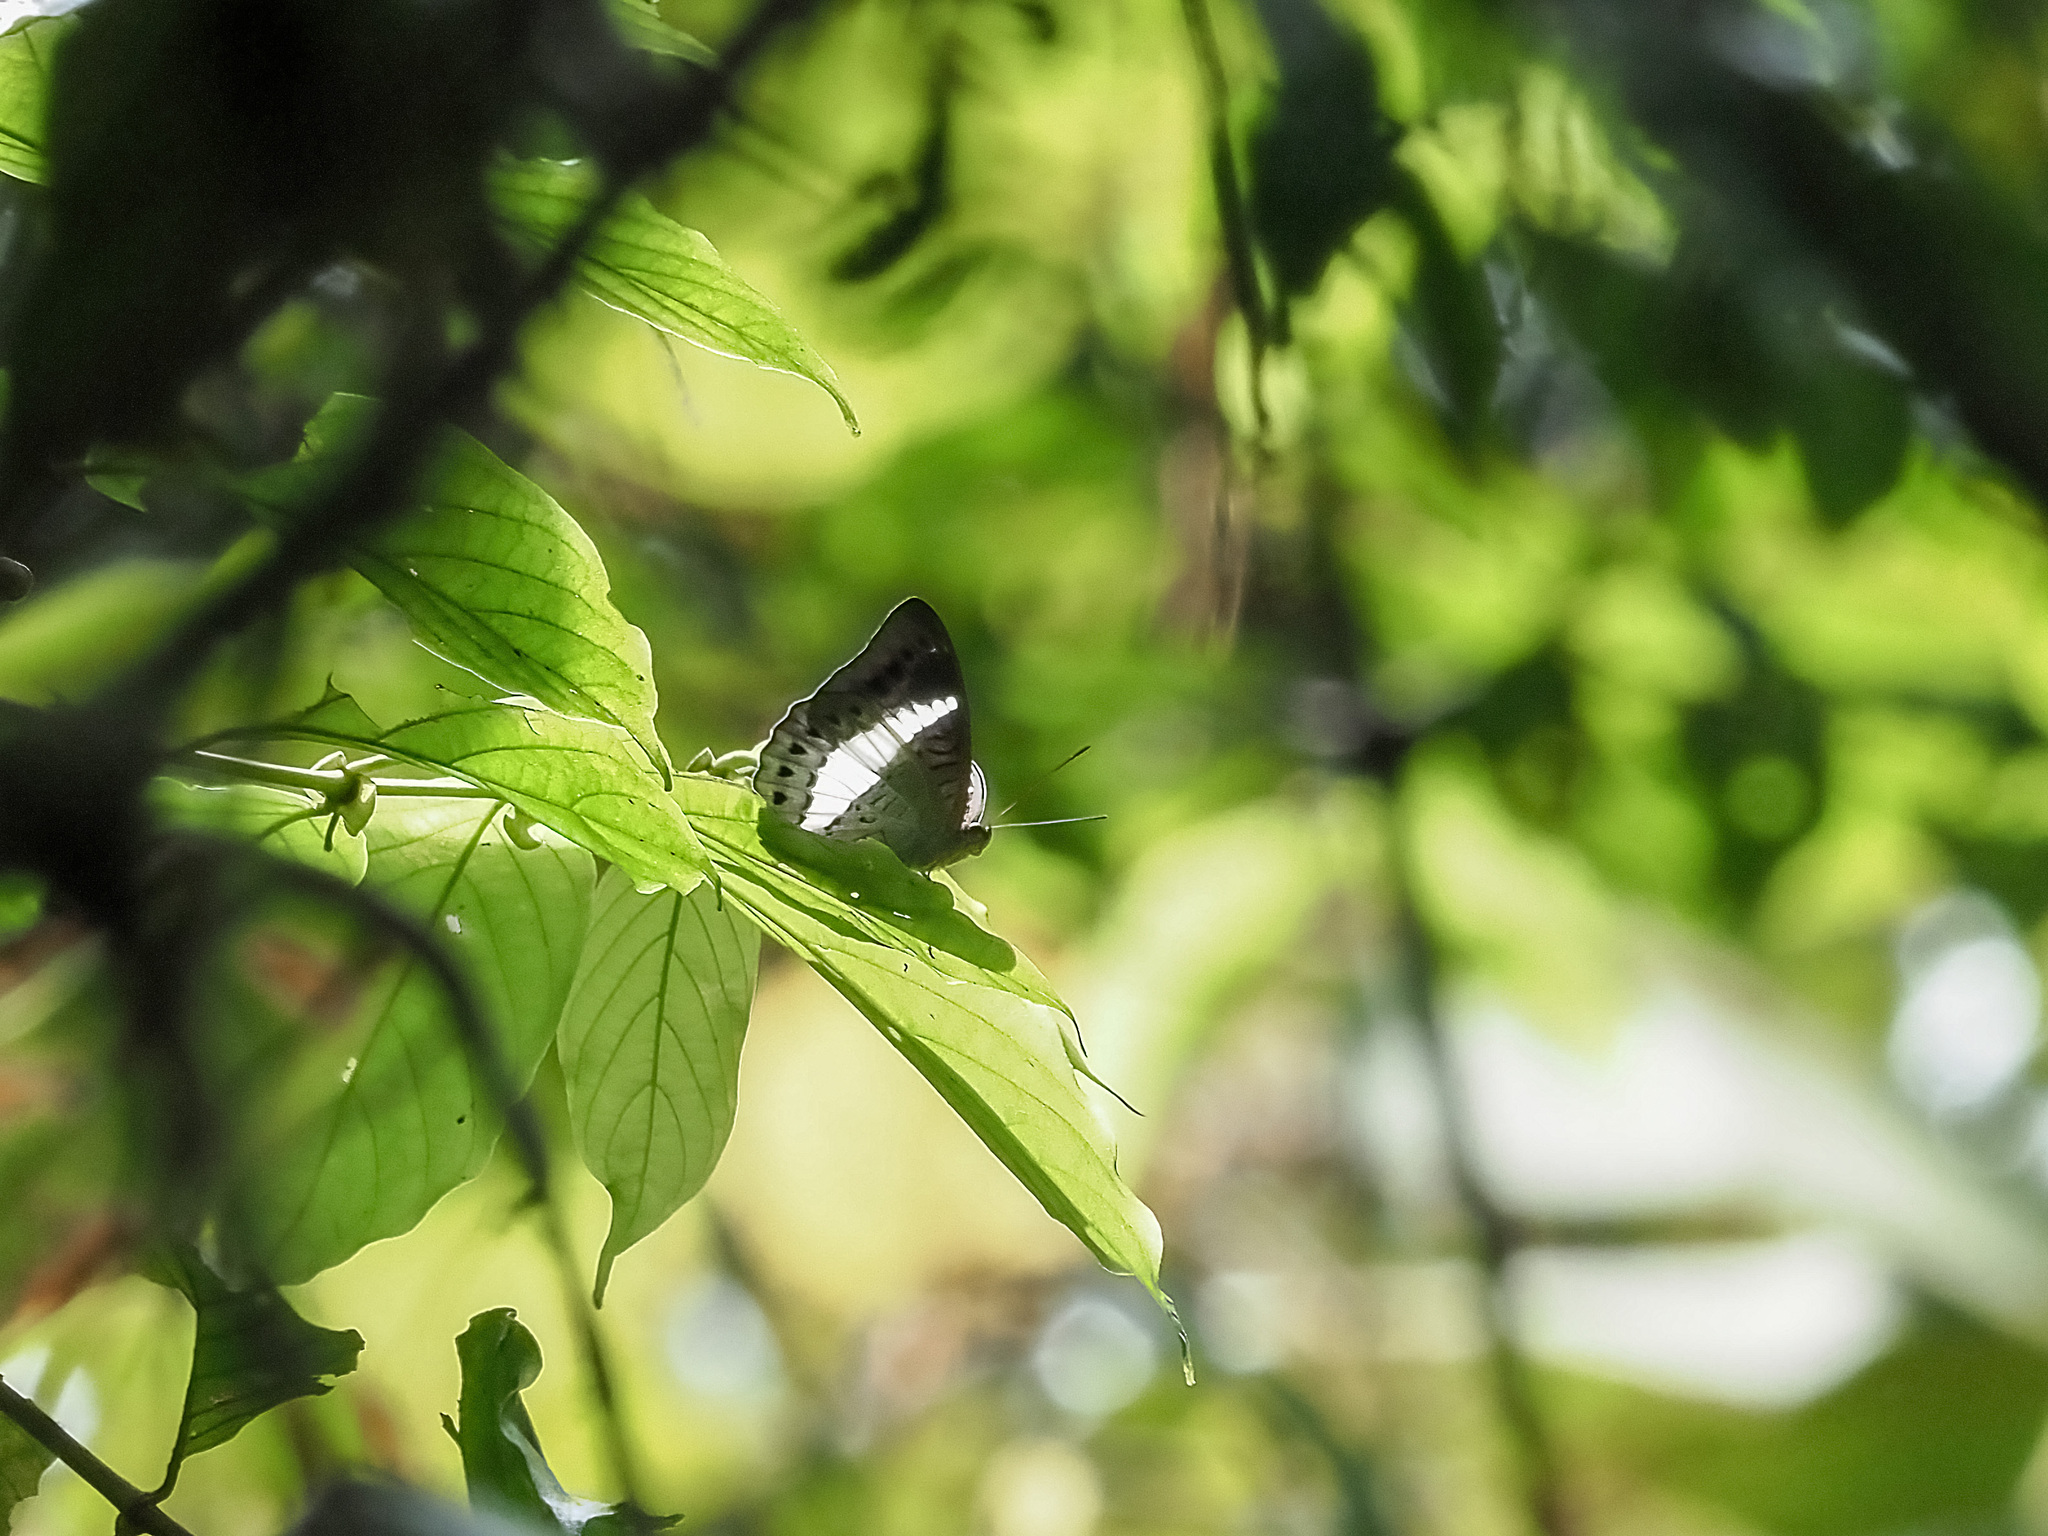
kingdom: Animalia
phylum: Arthropoda
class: Insecta
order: Lepidoptera
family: Nymphalidae
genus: Tanaecia
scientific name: Tanaecia amisa
